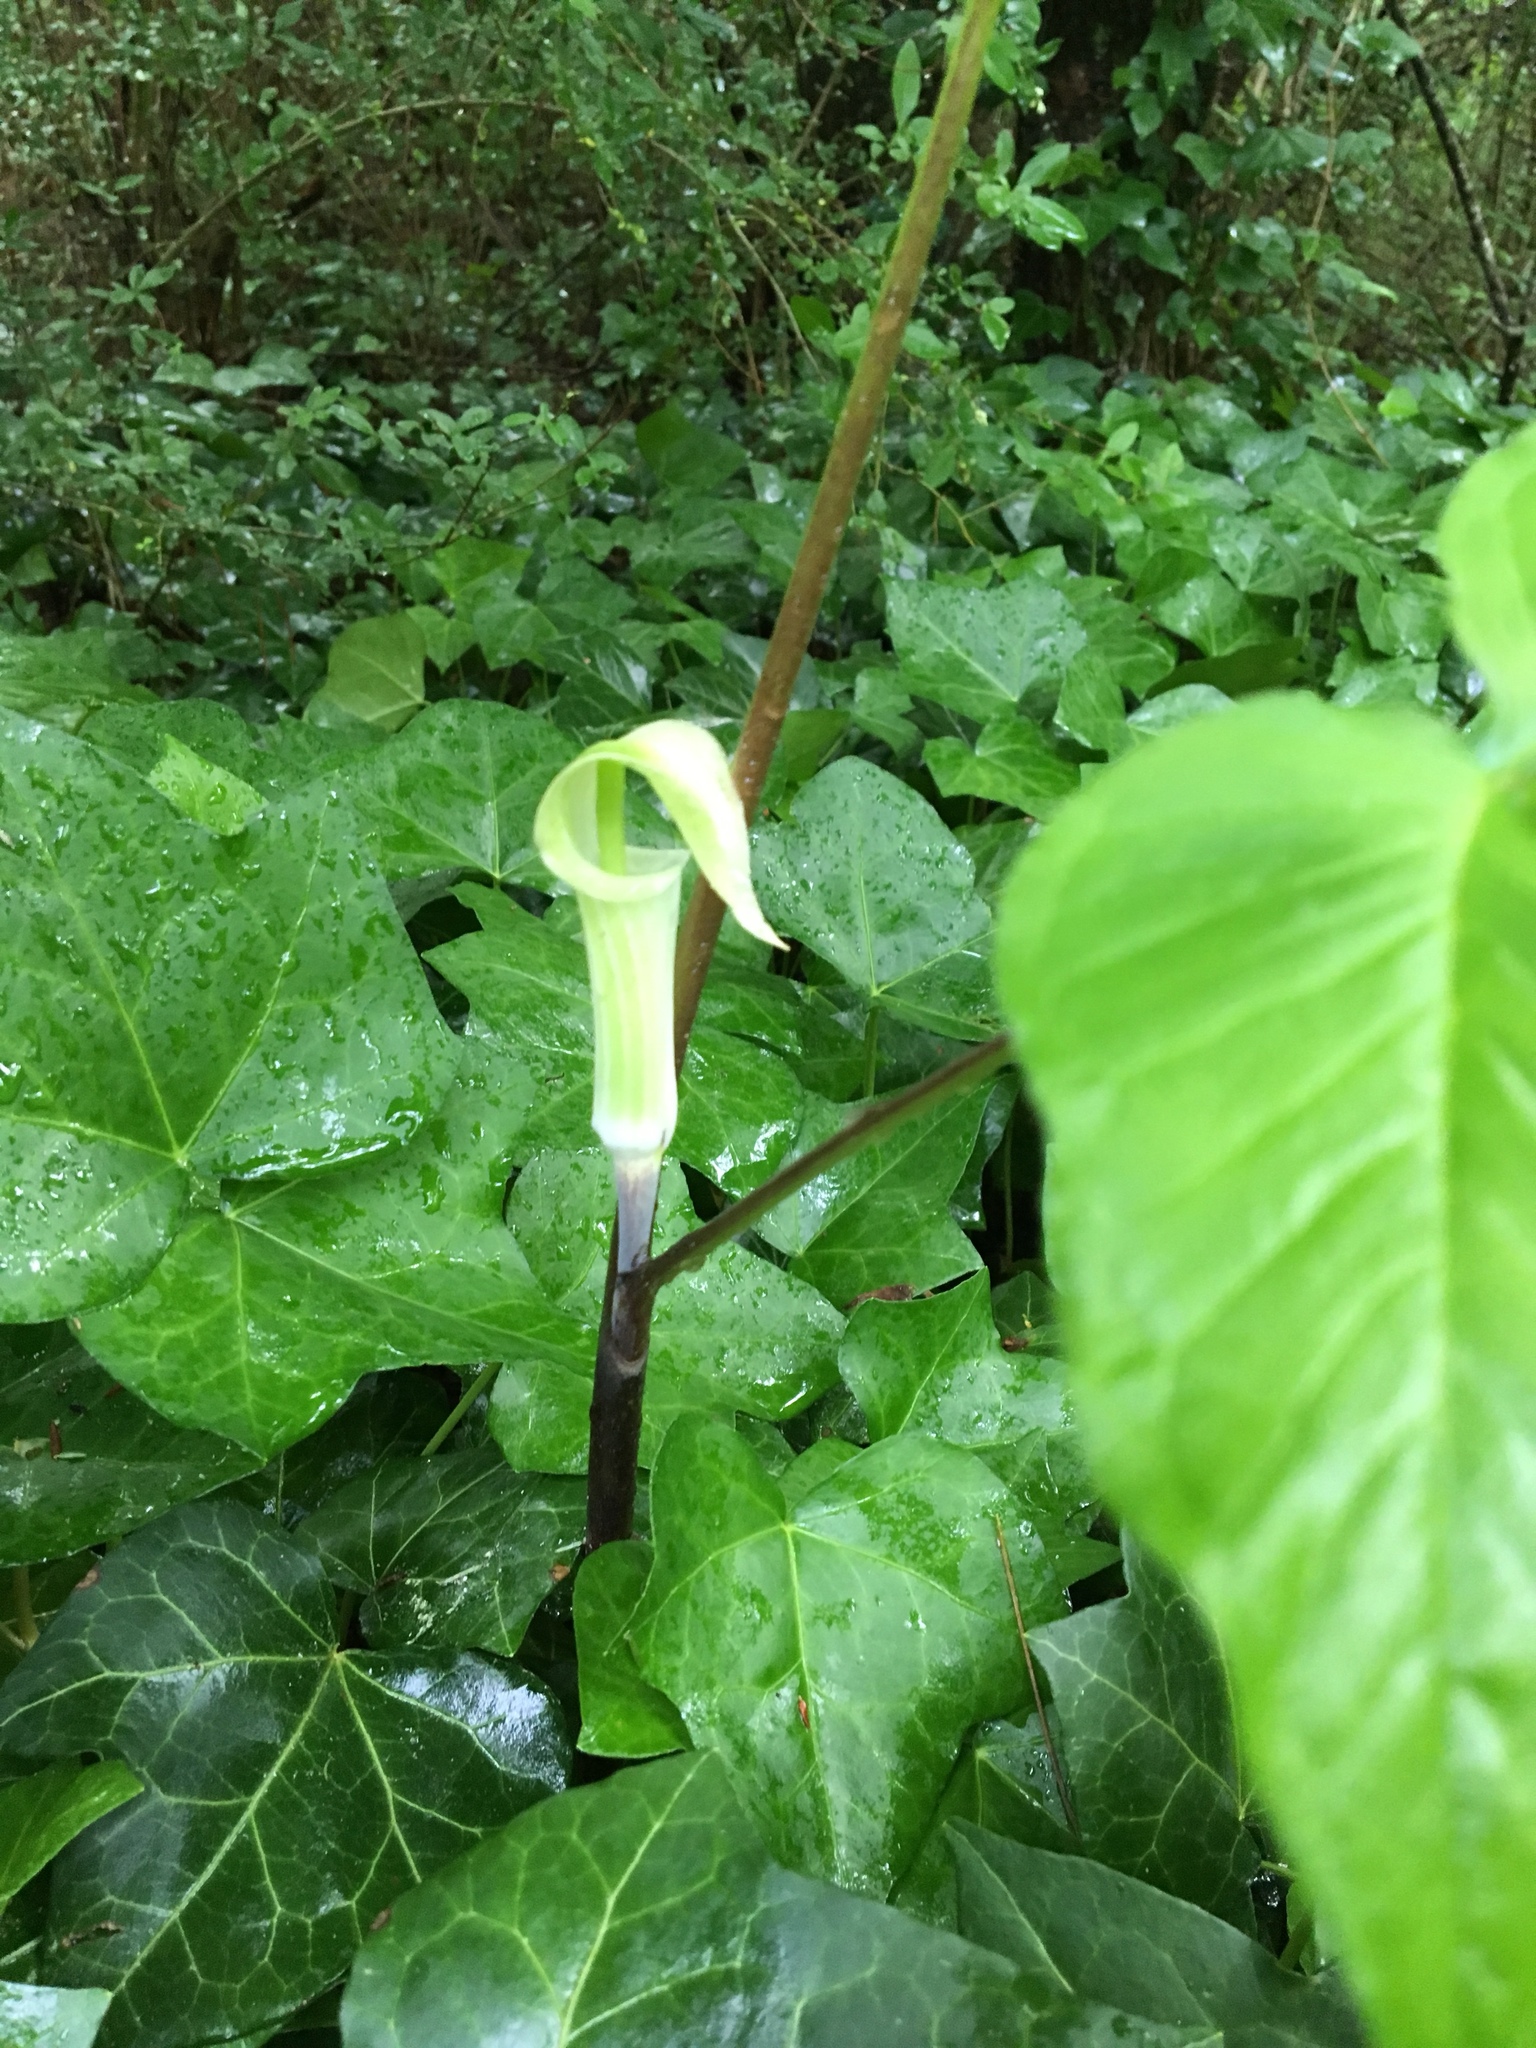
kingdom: Plantae
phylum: Tracheophyta
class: Liliopsida
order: Alismatales
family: Araceae
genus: Arisaema
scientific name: Arisaema triphyllum
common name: Jack-in-the-pulpit
